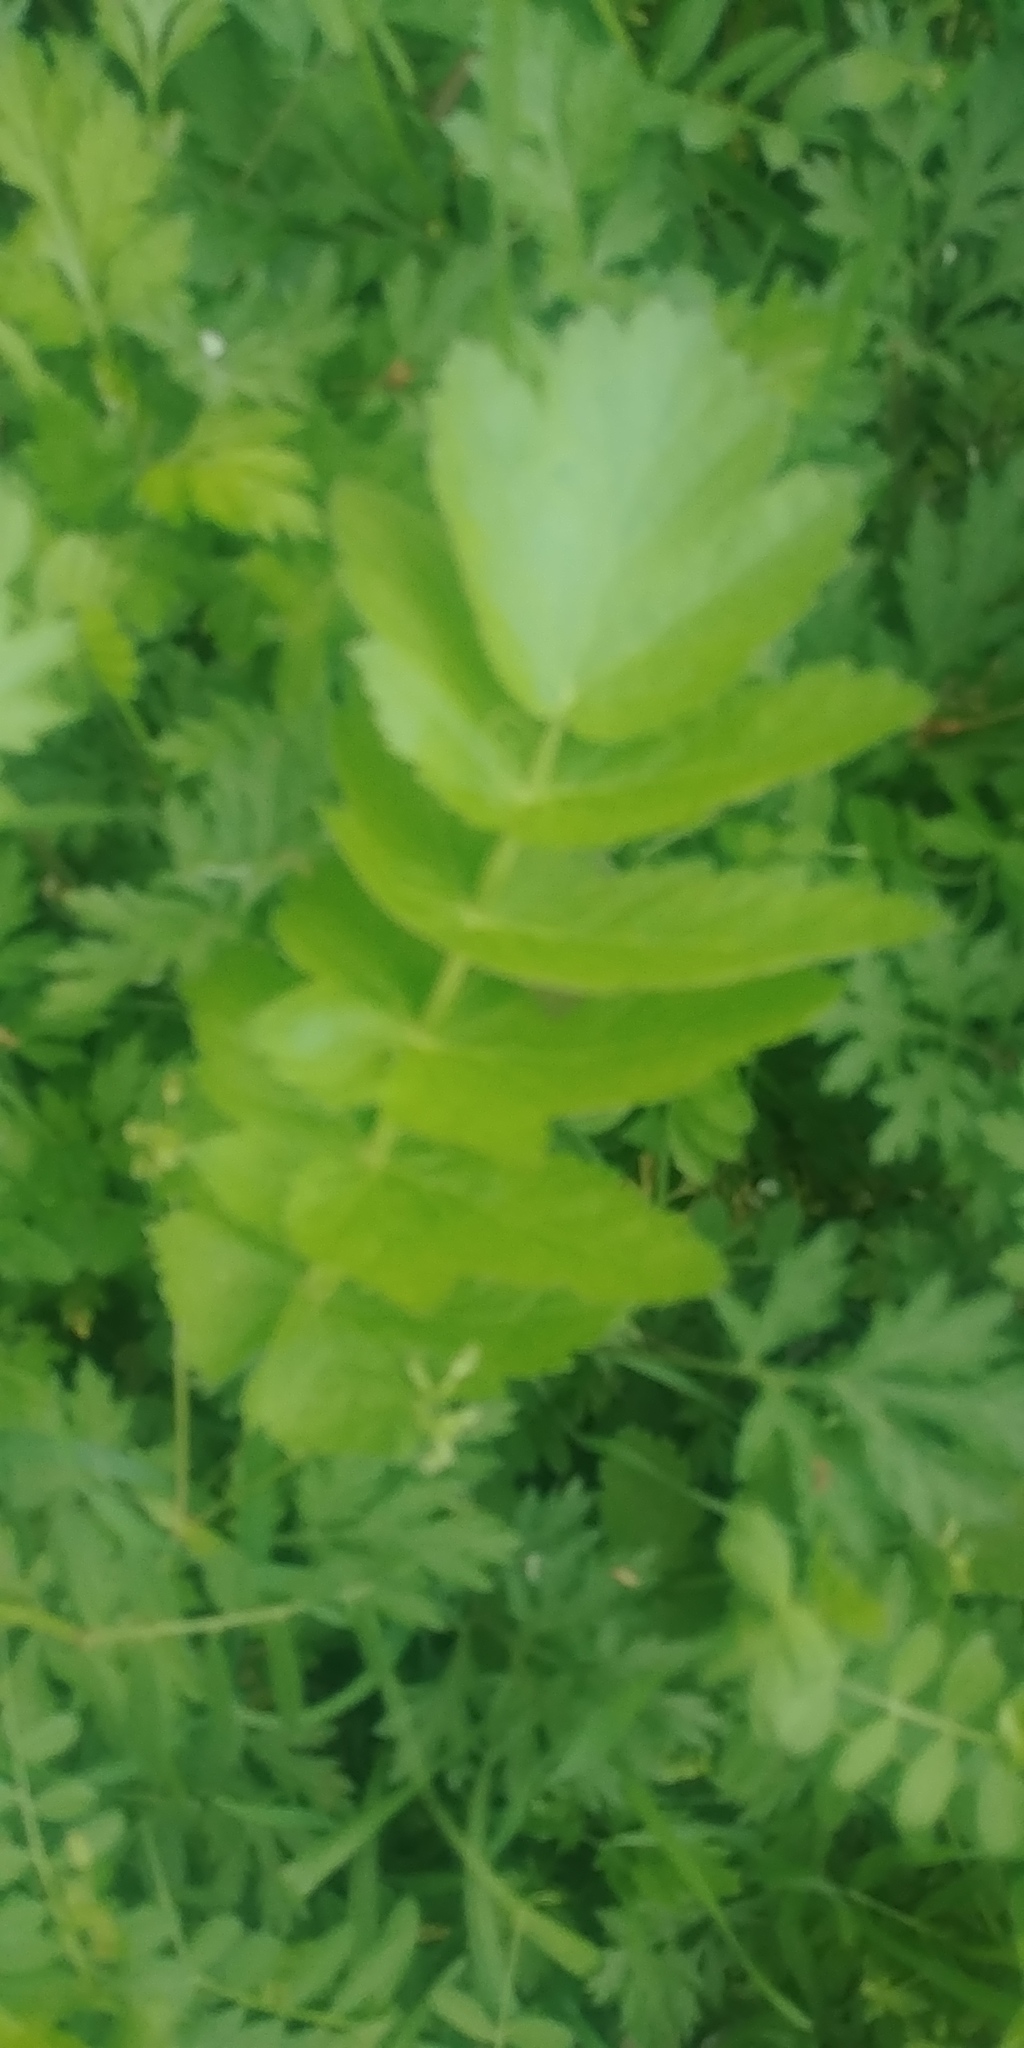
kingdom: Plantae
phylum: Tracheophyta
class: Magnoliopsida
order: Apiales
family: Apiaceae
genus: Pastinaca
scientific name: Pastinaca sativa
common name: Wild parsnip
